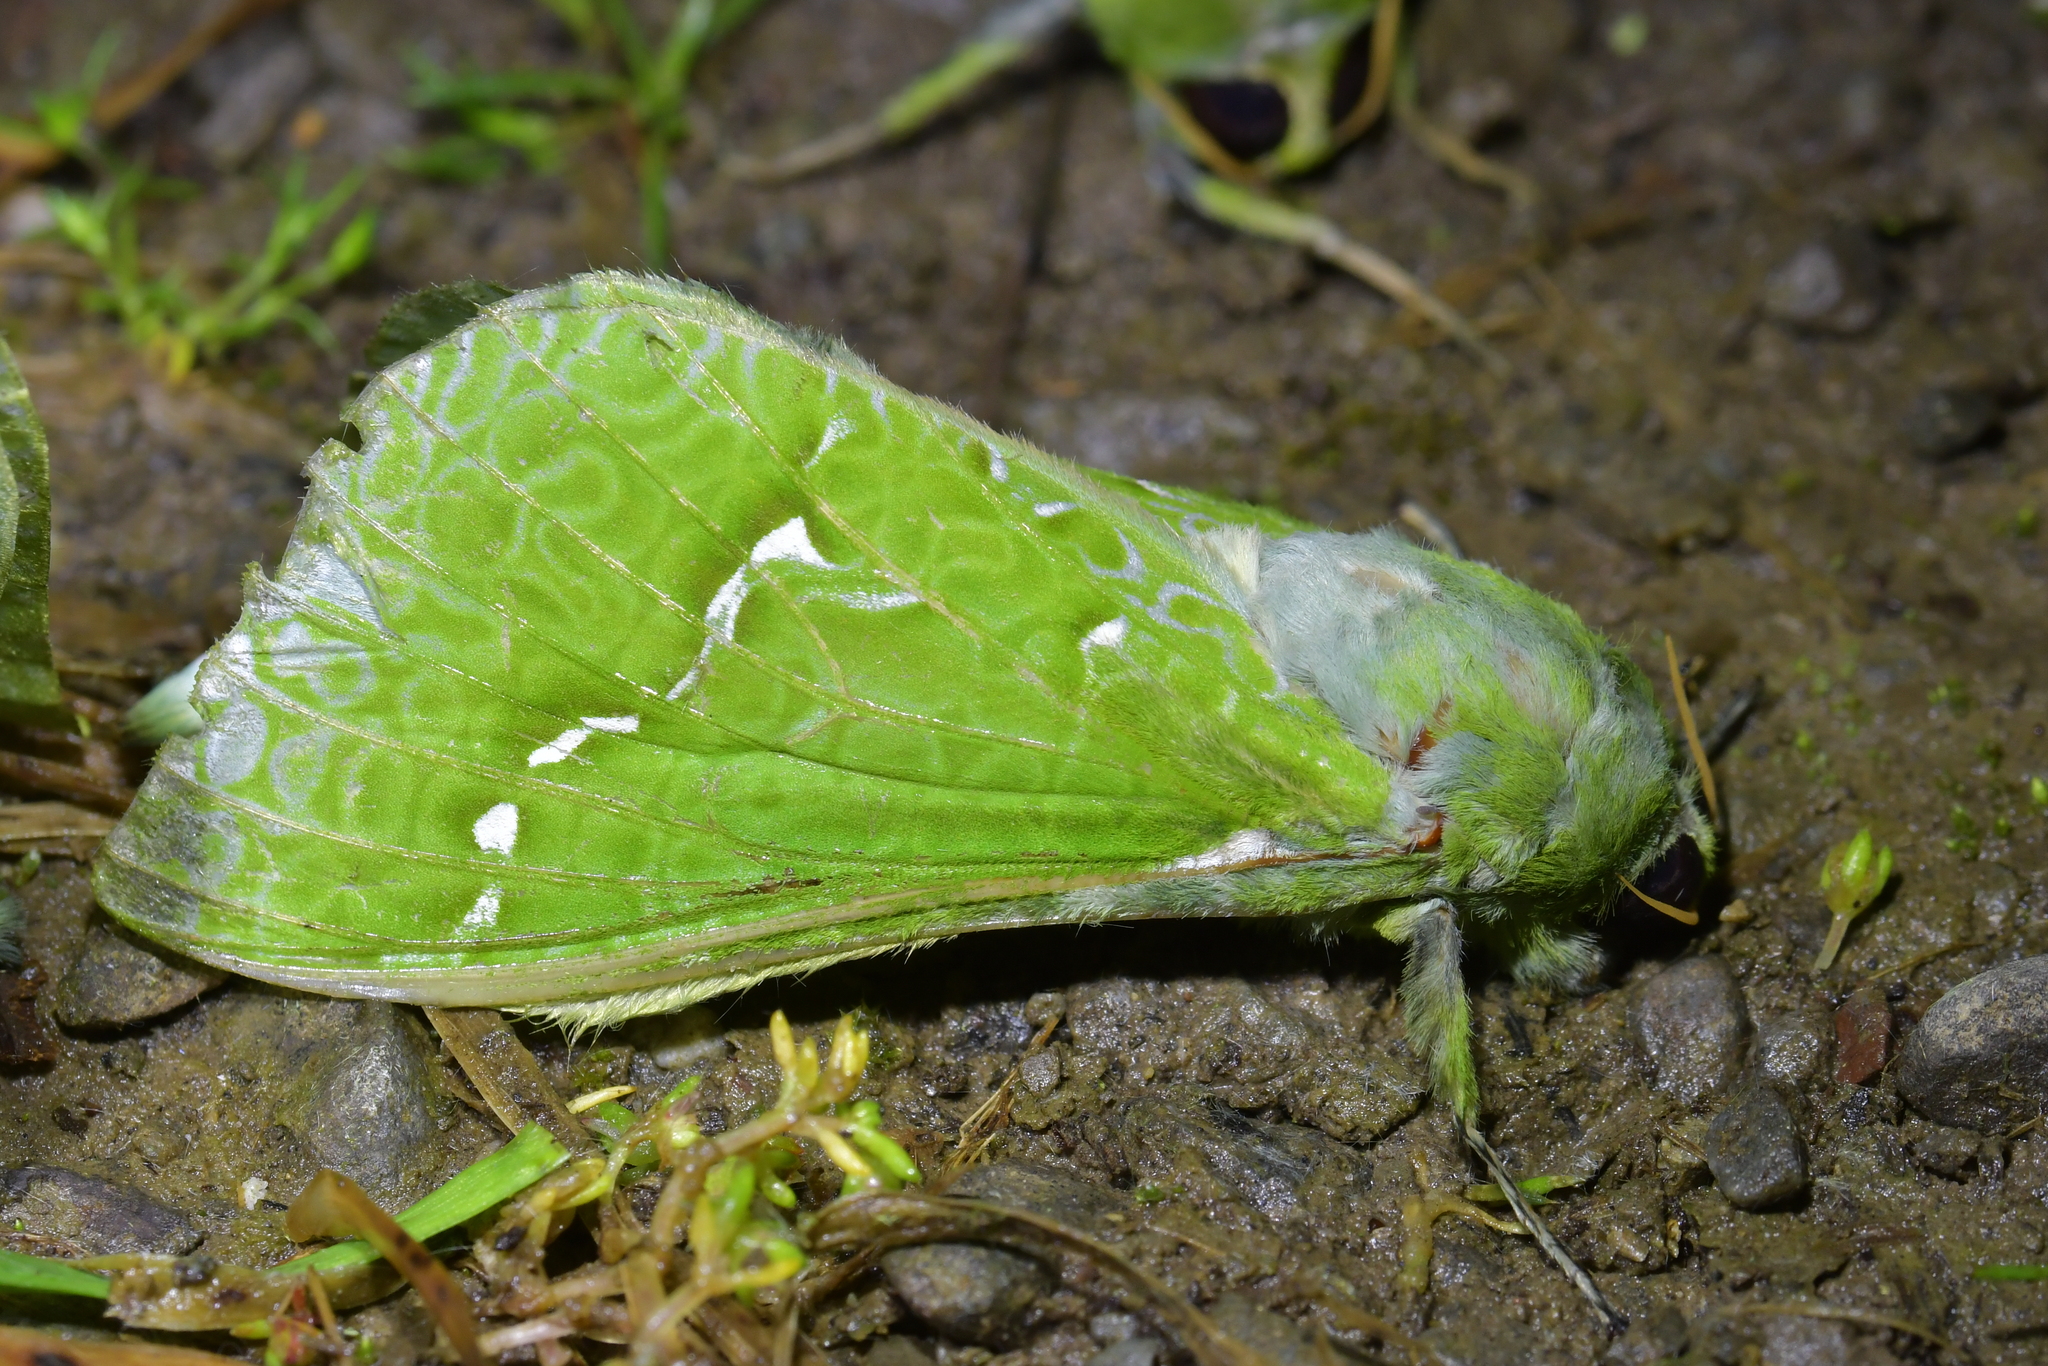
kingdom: Animalia
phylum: Arthropoda
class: Insecta
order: Lepidoptera
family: Hepialidae
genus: Aenetus
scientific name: Aenetus virescens
